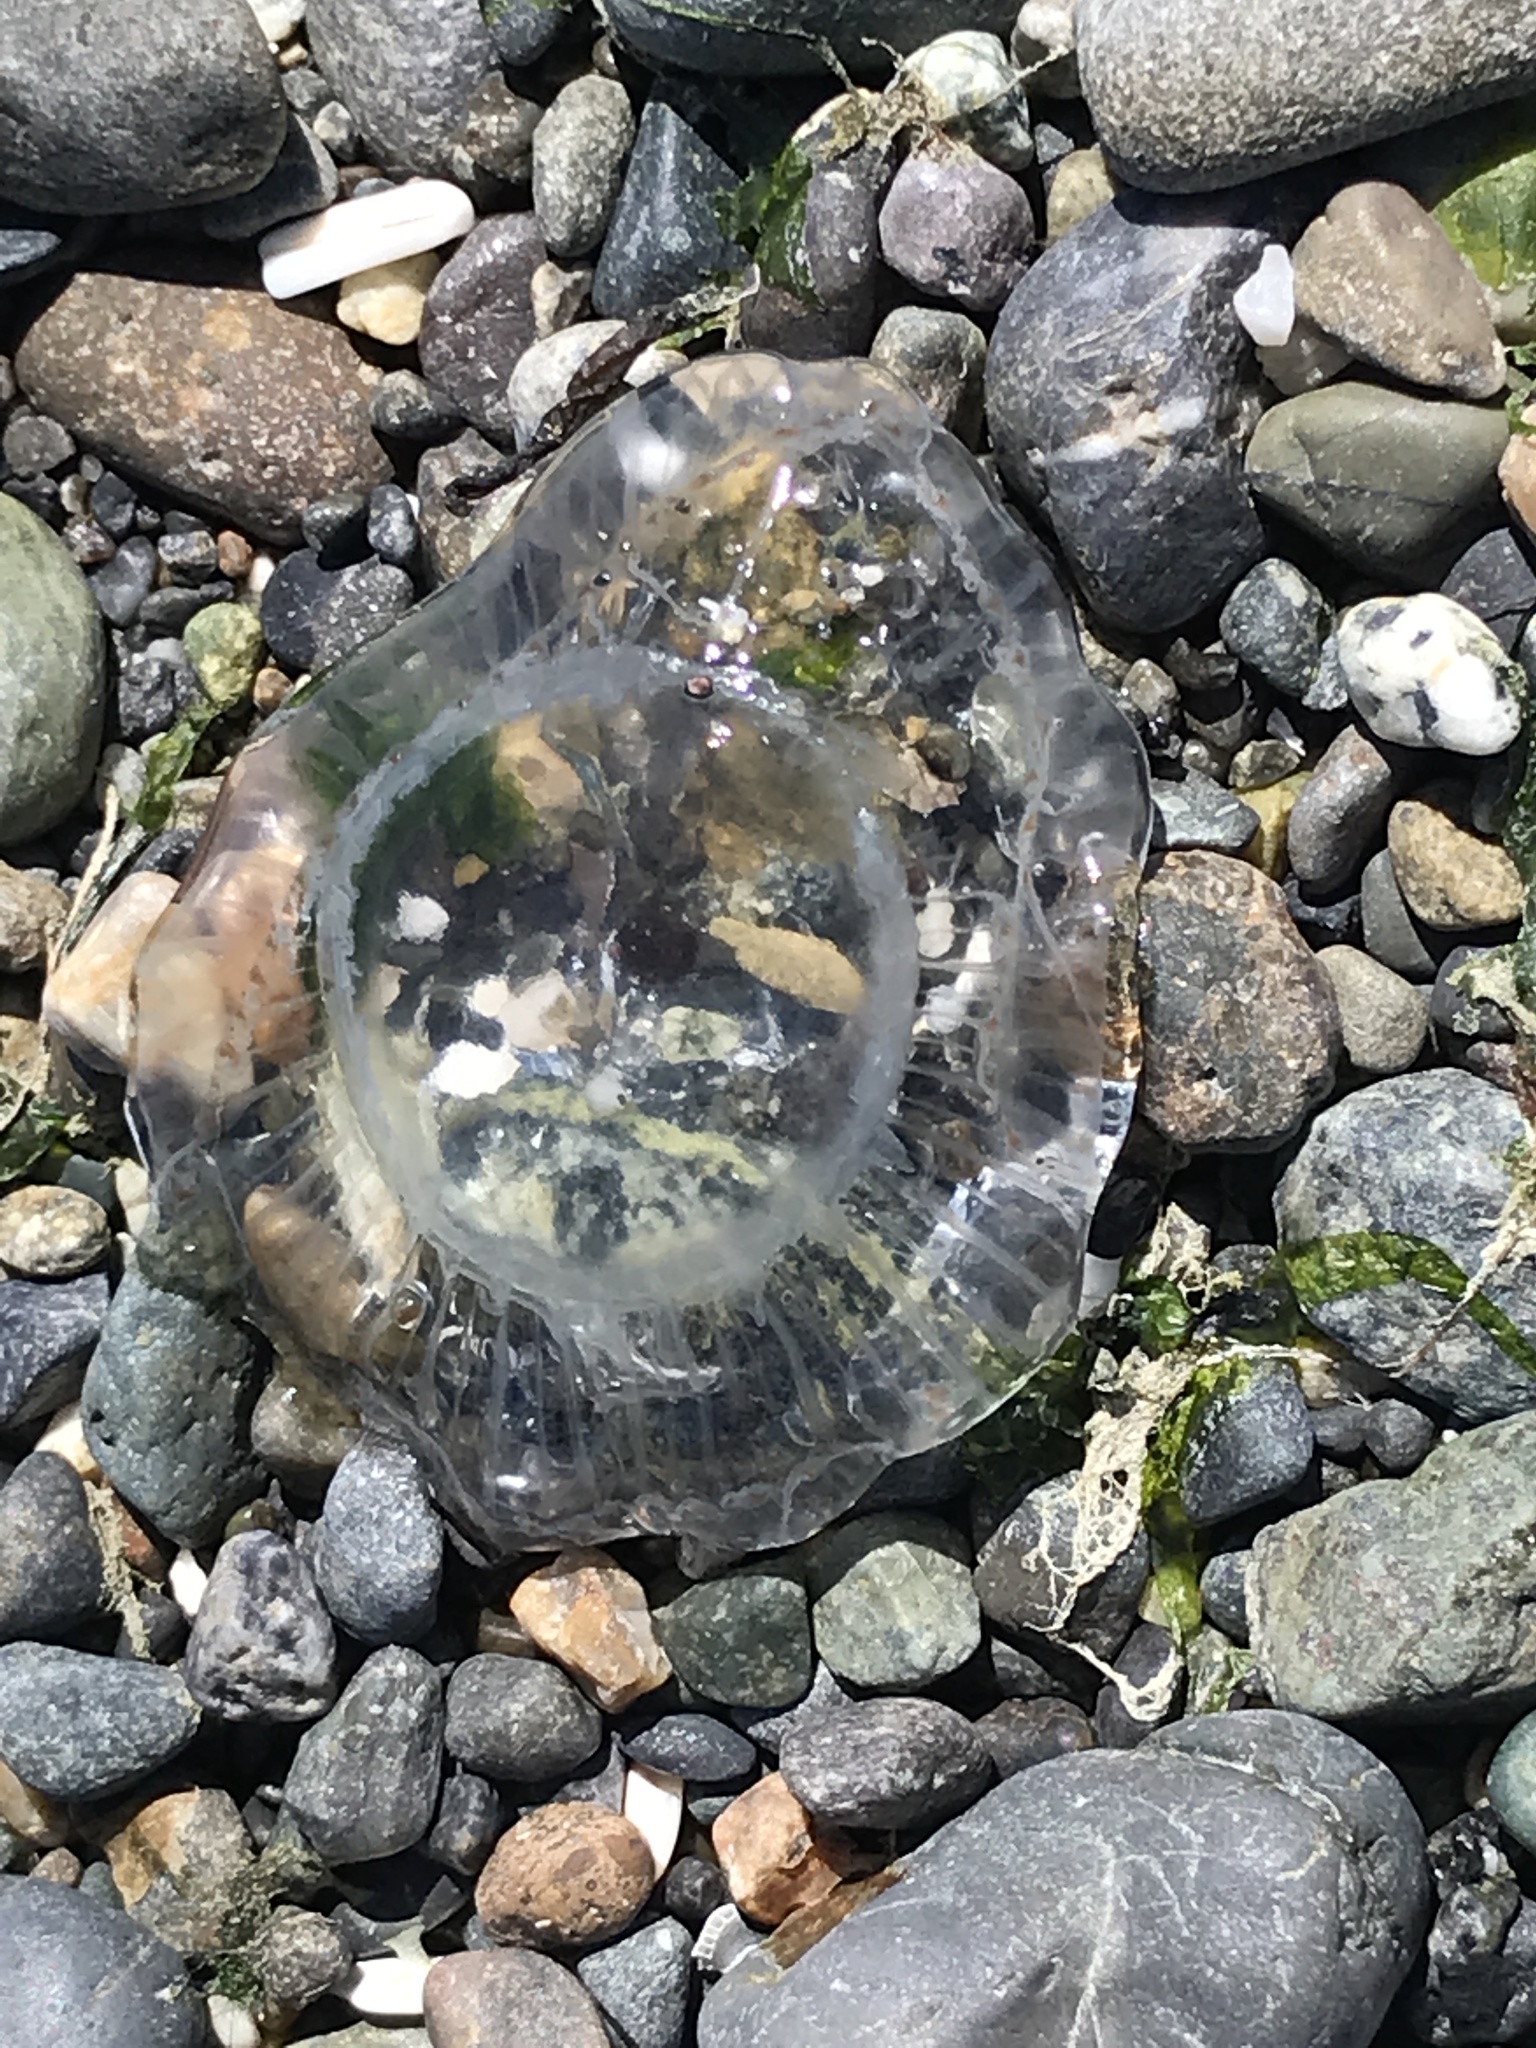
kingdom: Animalia
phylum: Cnidaria
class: Hydrozoa
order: Leptothecata
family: Aequoreidae
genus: Aequorea
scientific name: Aequorea victoria
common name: Water jellyfish
